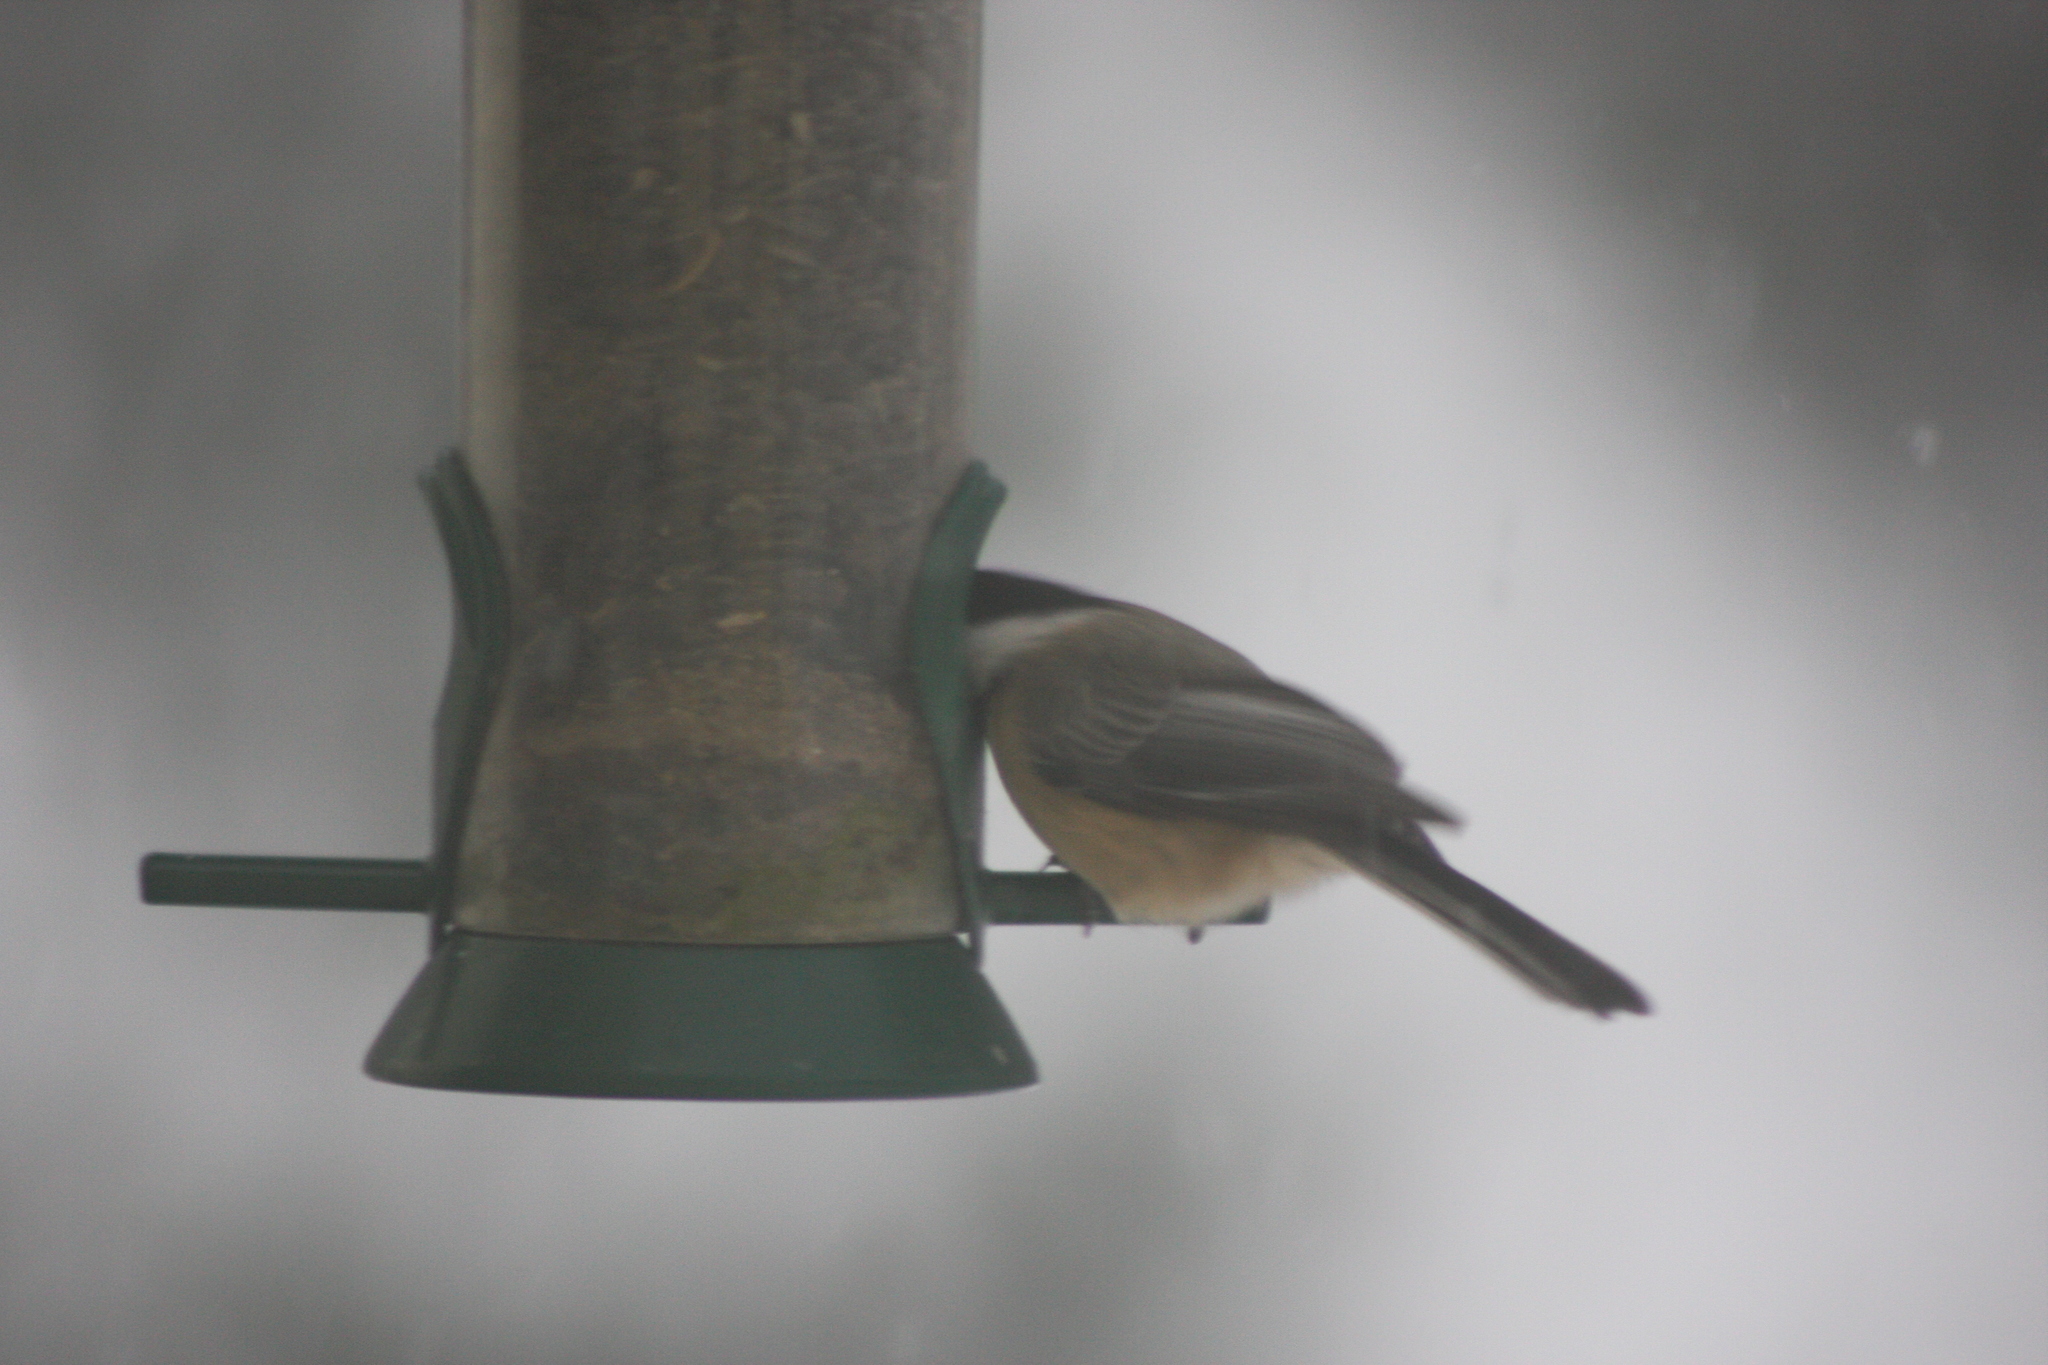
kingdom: Animalia
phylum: Chordata
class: Aves
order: Passeriformes
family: Paridae
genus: Poecile
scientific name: Poecile atricapillus
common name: Black-capped chickadee
